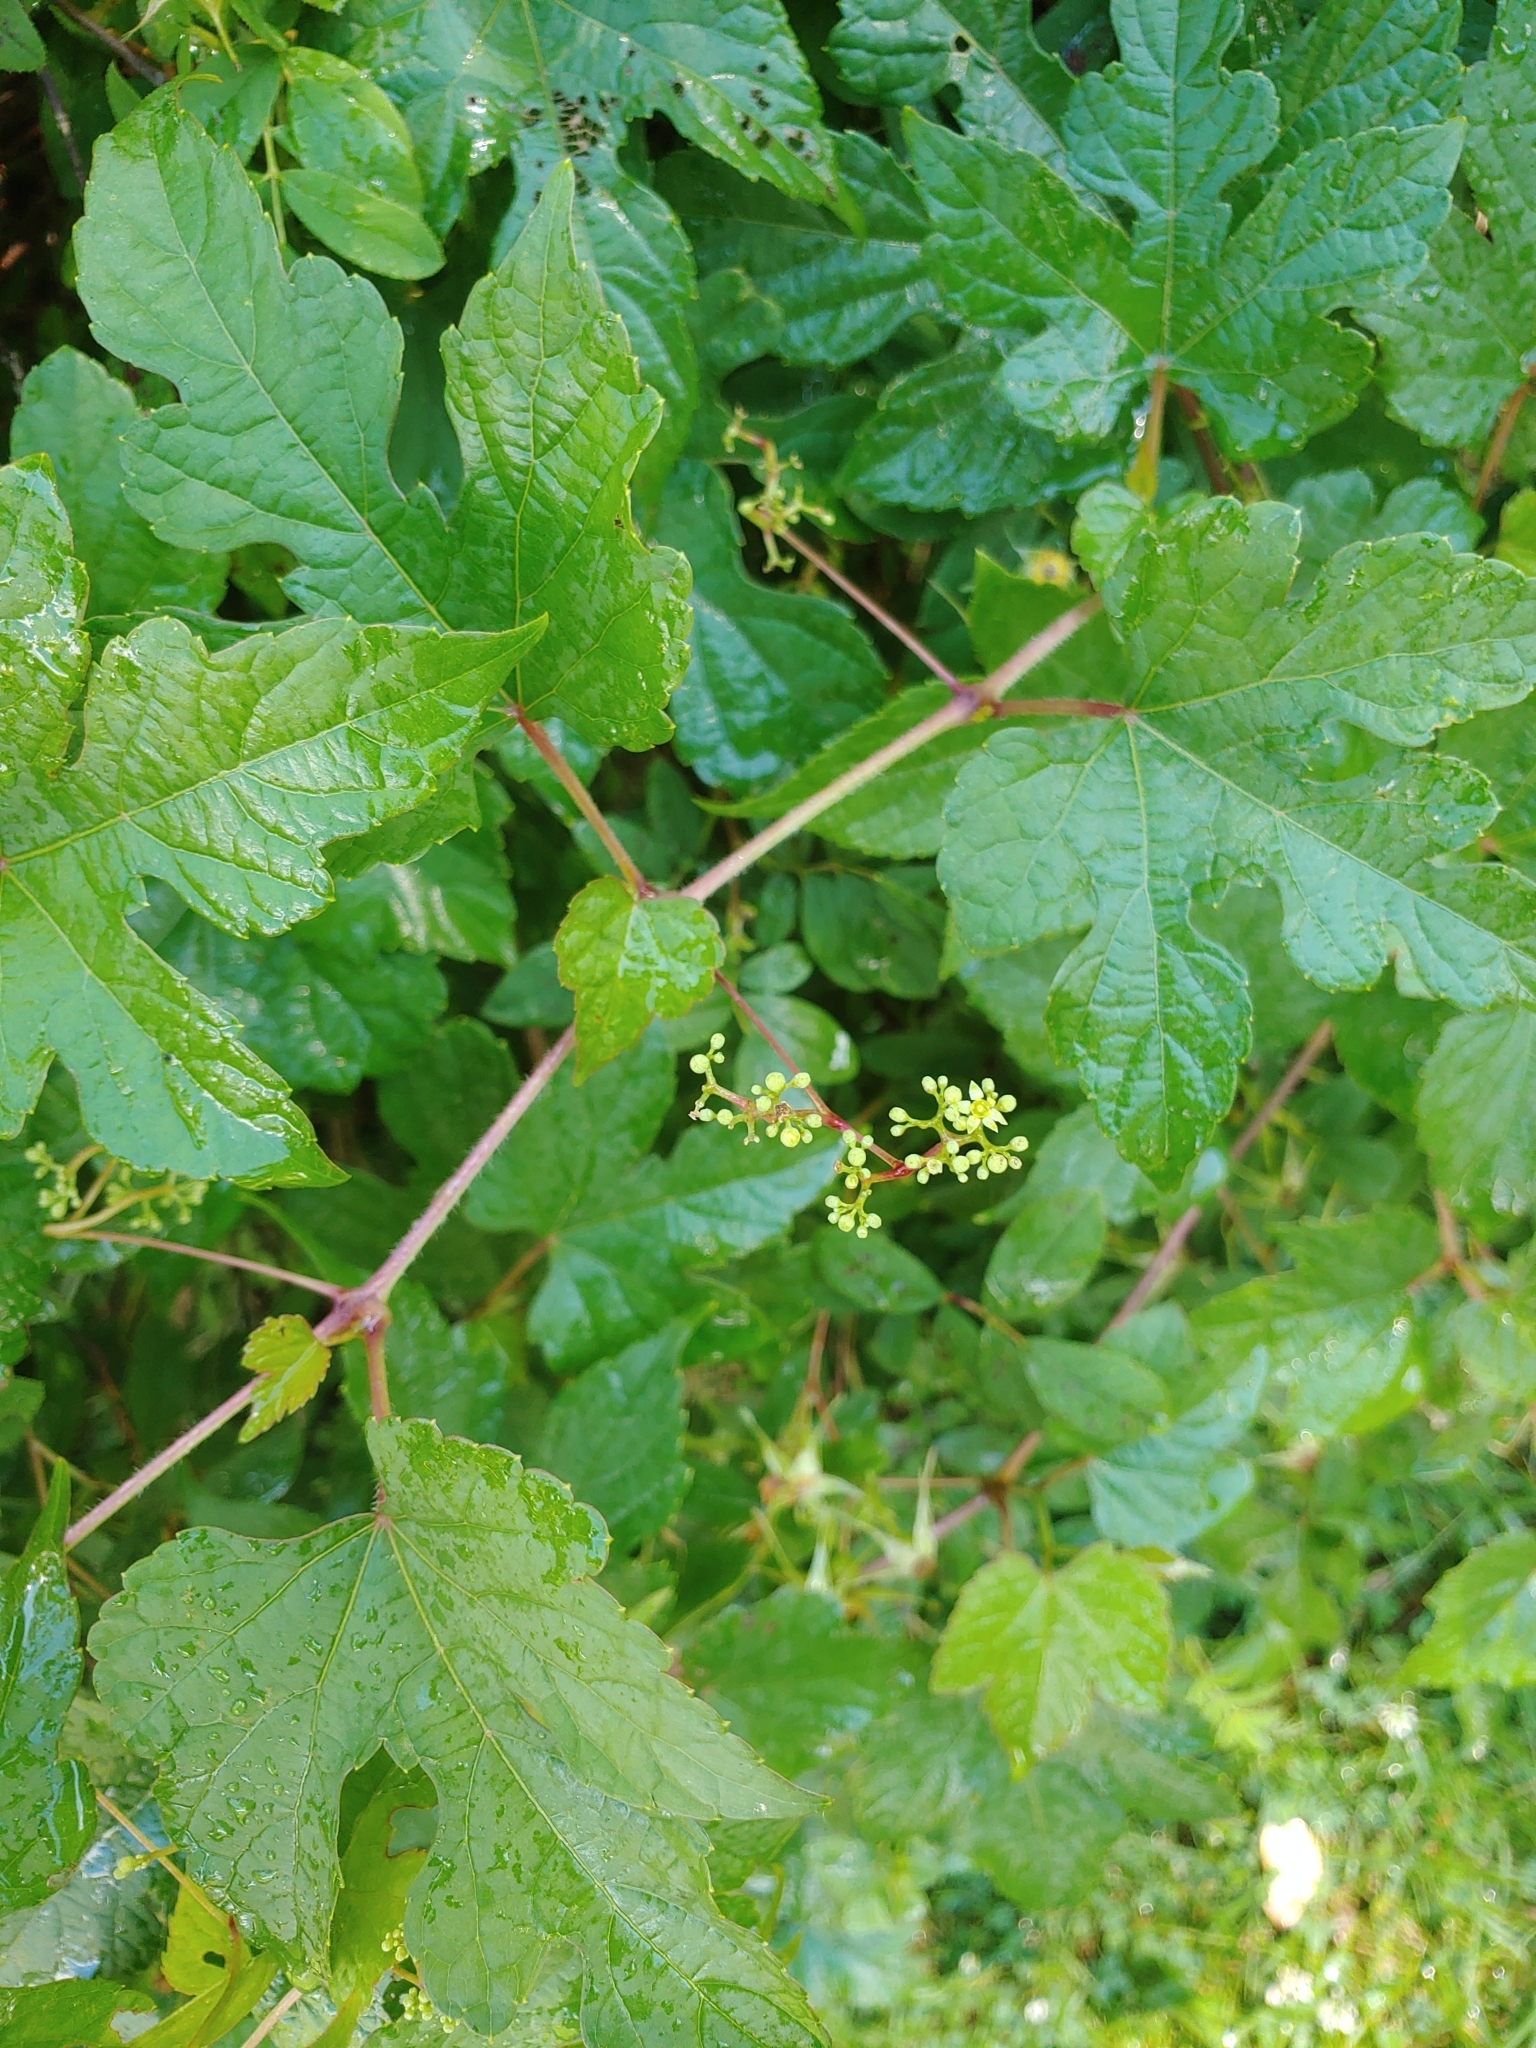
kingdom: Plantae
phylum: Tracheophyta
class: Magnoliopsida
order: Vitales
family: Vitaceae
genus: Ampelopsis
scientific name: Ampelopsis glandulosa
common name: Amur peppervine
